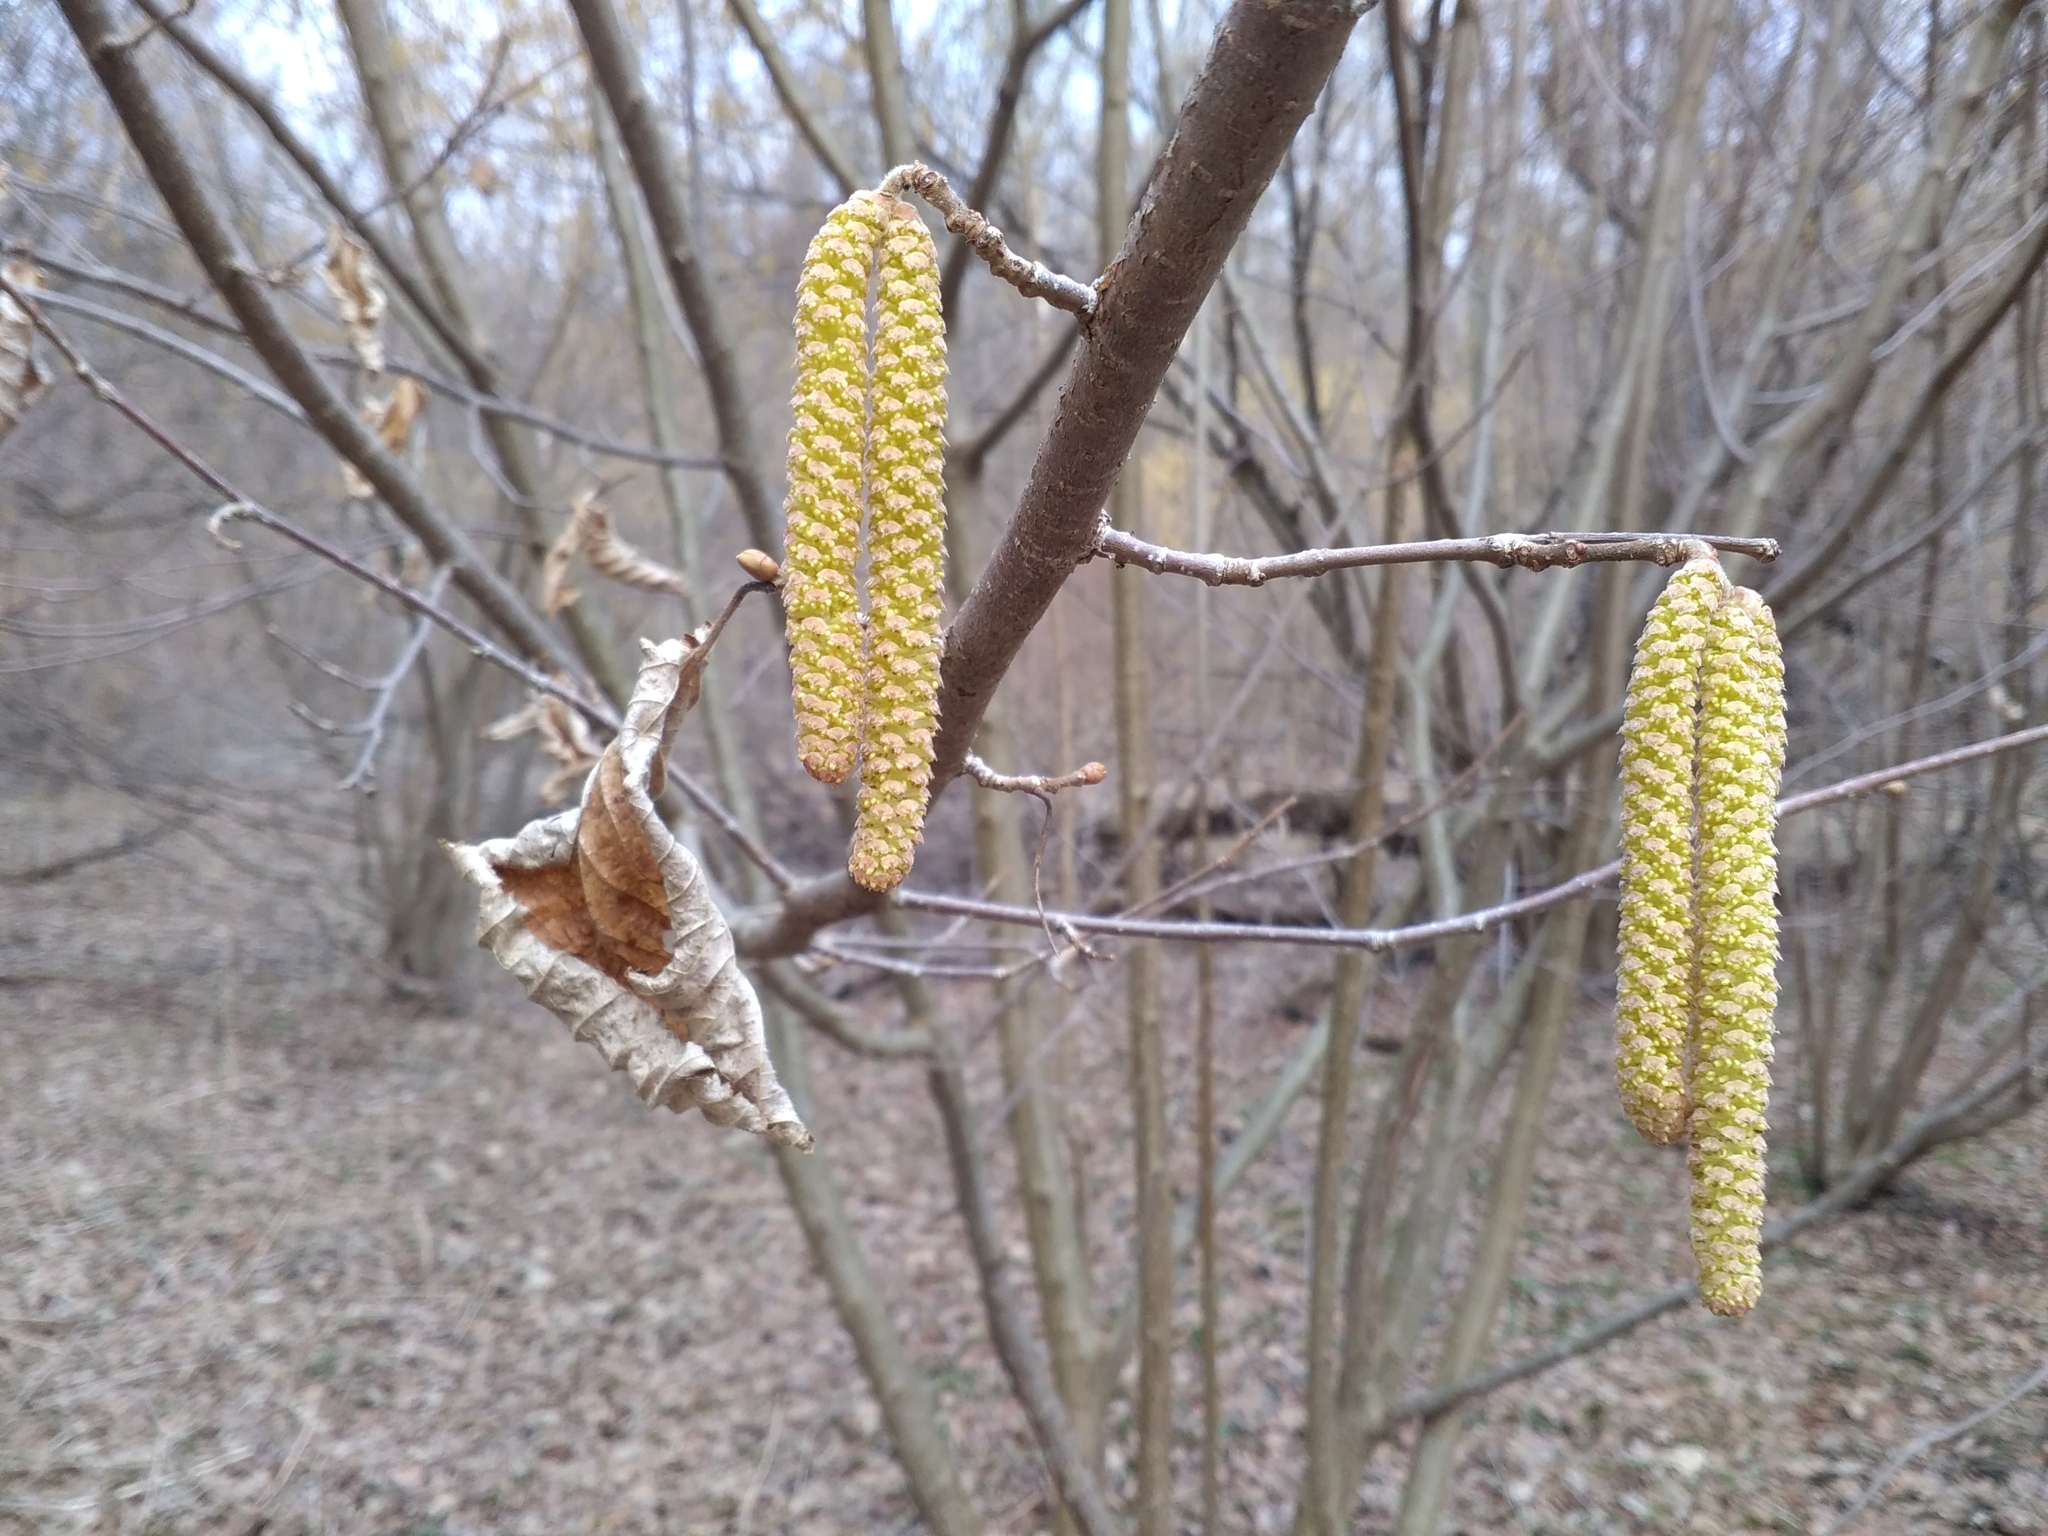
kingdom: Plantae
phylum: Tracheophyta
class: Magnoliopsida
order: Fagales
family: Betulaceae
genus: Corylus
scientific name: Corylus avellana
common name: European hazel
